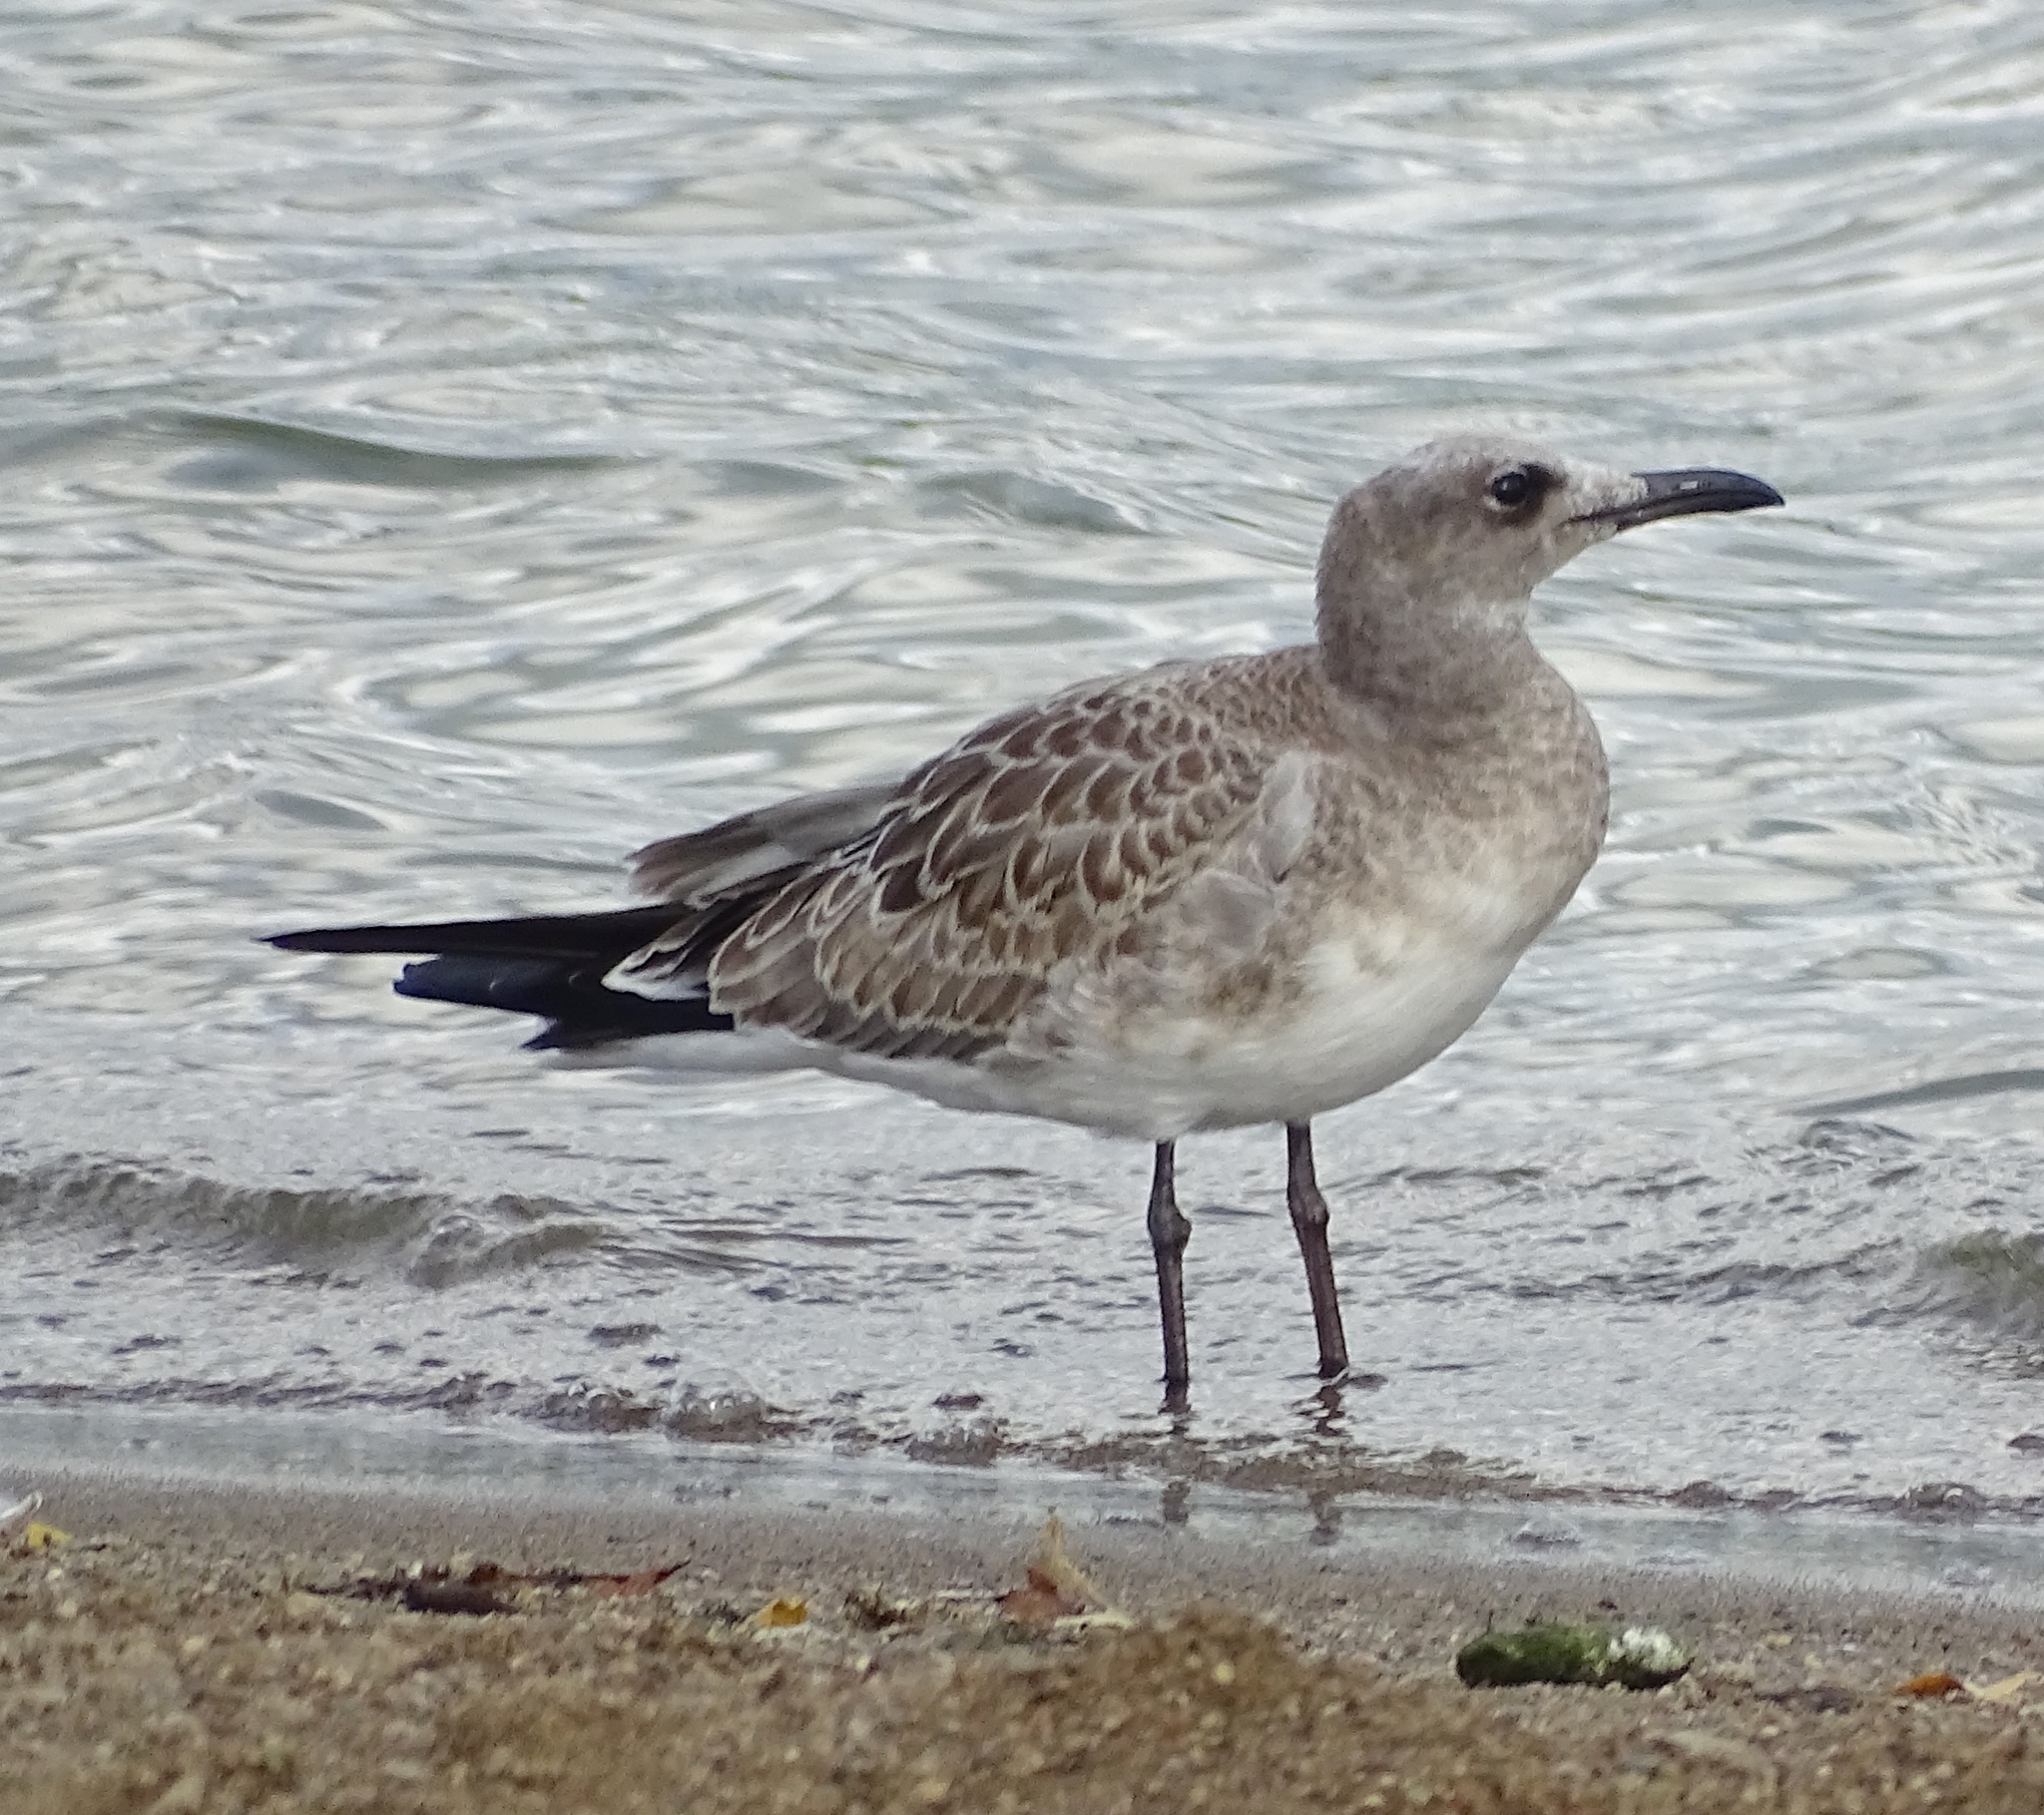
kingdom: Animalia
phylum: Chordata
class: Aves
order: Charadriiformes
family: Laridae
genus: Leucophaeus
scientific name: Leucophaeus atricilla
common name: Laughing gull
